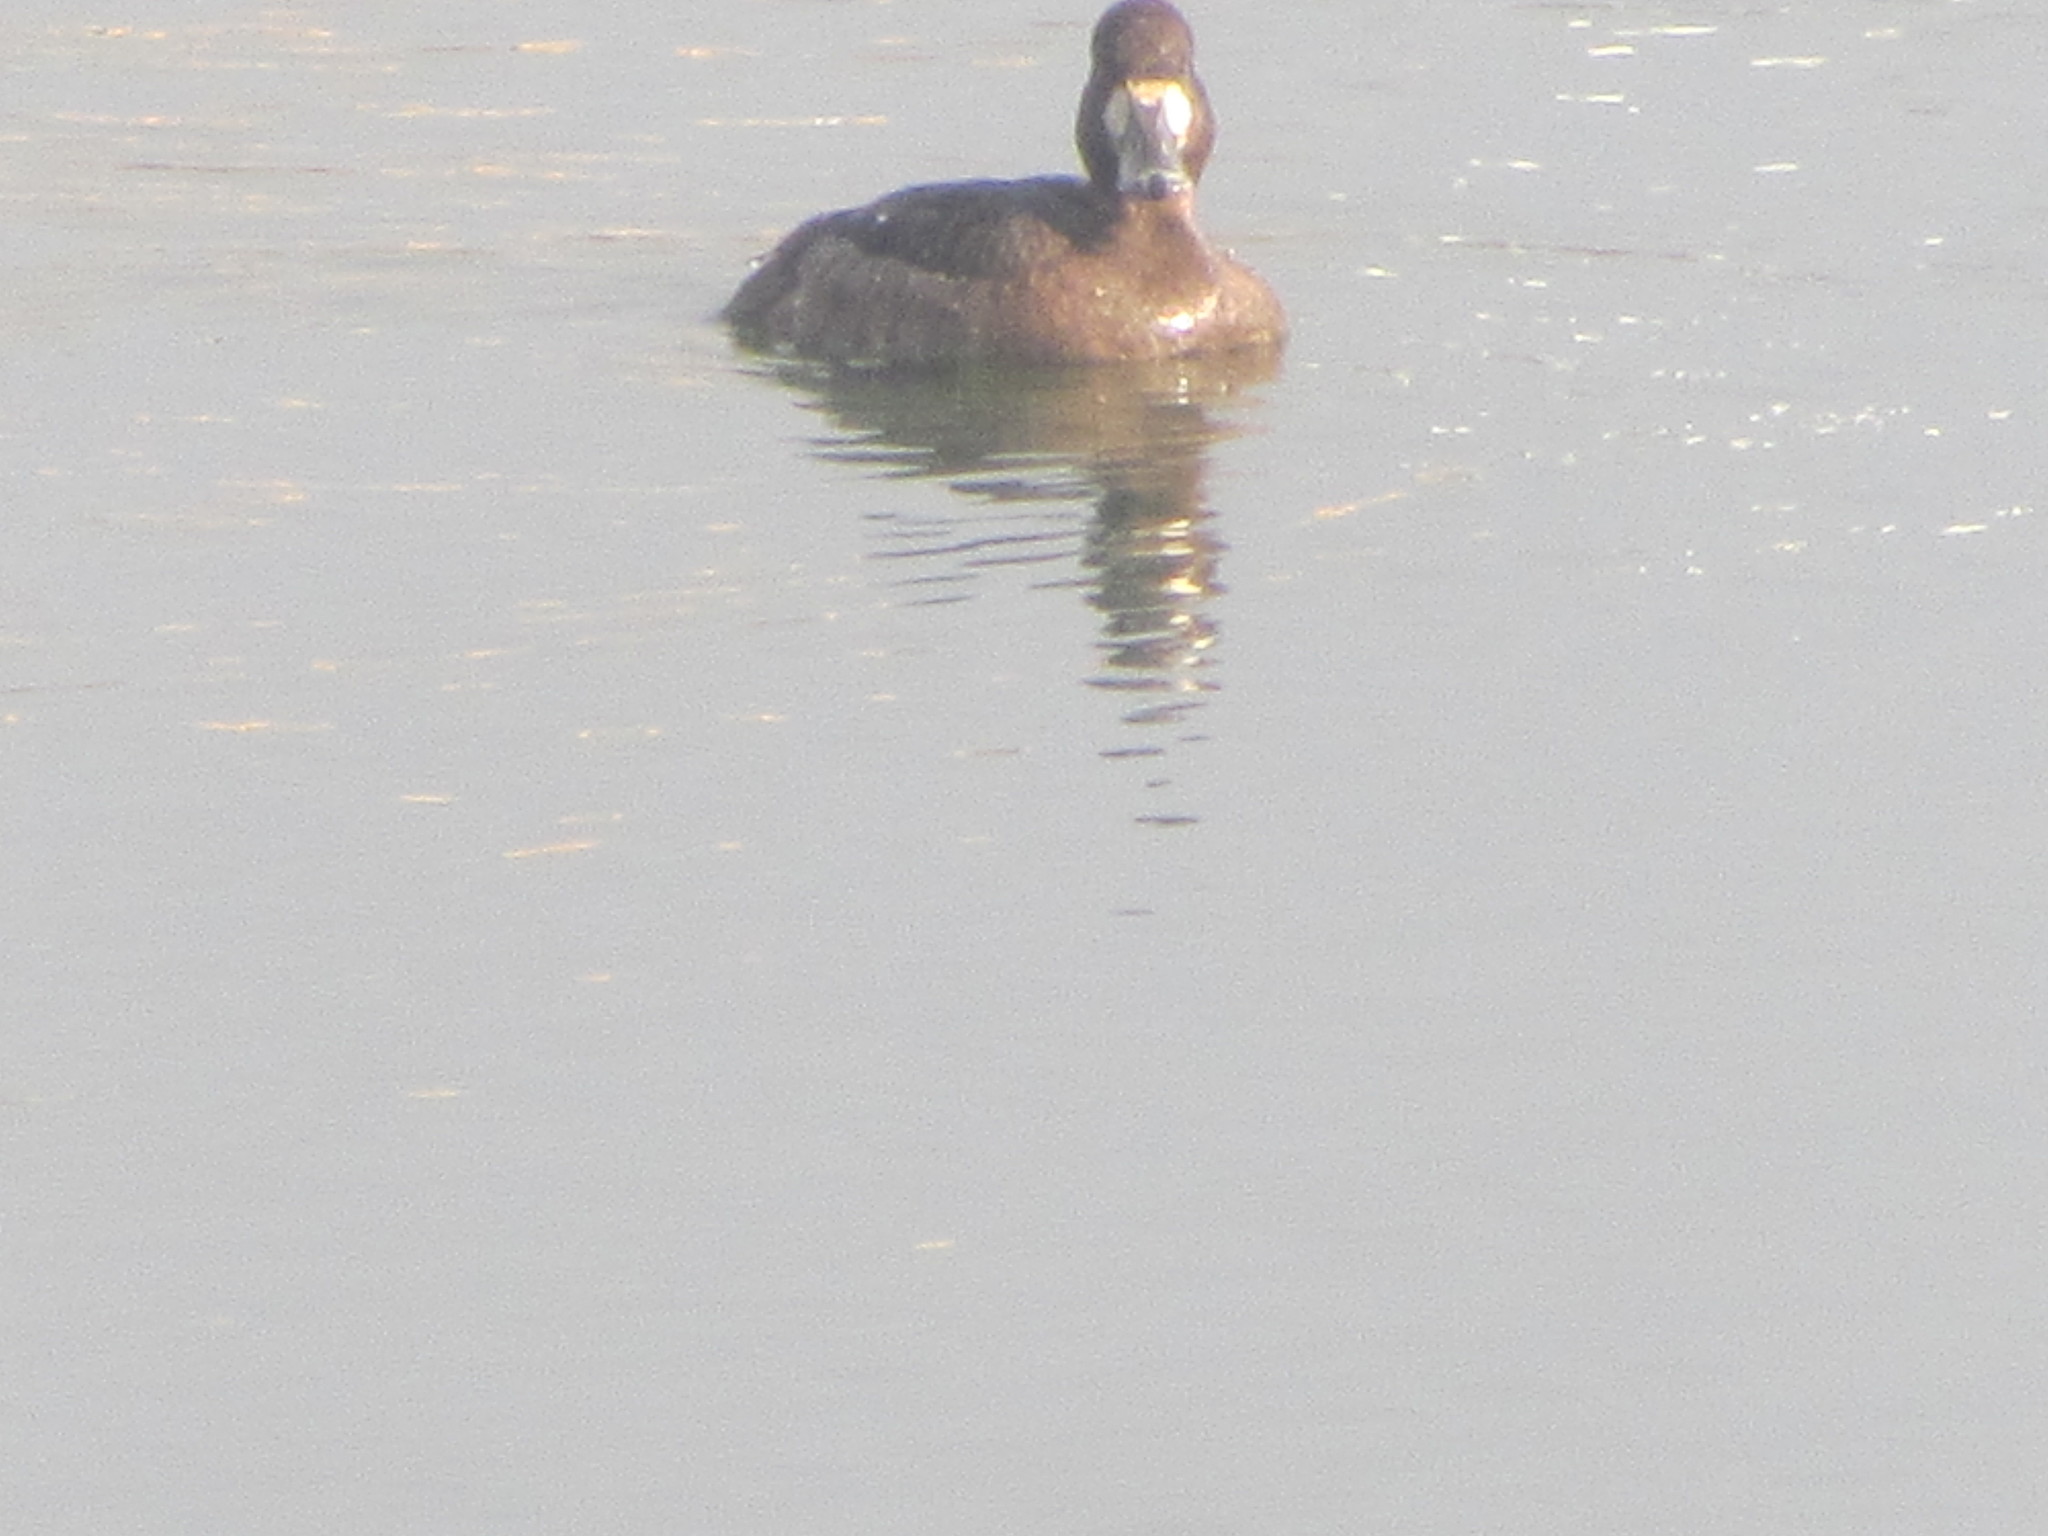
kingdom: Animalia
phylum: Chordata
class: Aves
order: Anseriformes
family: Anatidae
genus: Aythya
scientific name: Aythya affinis
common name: Lesser scaup
